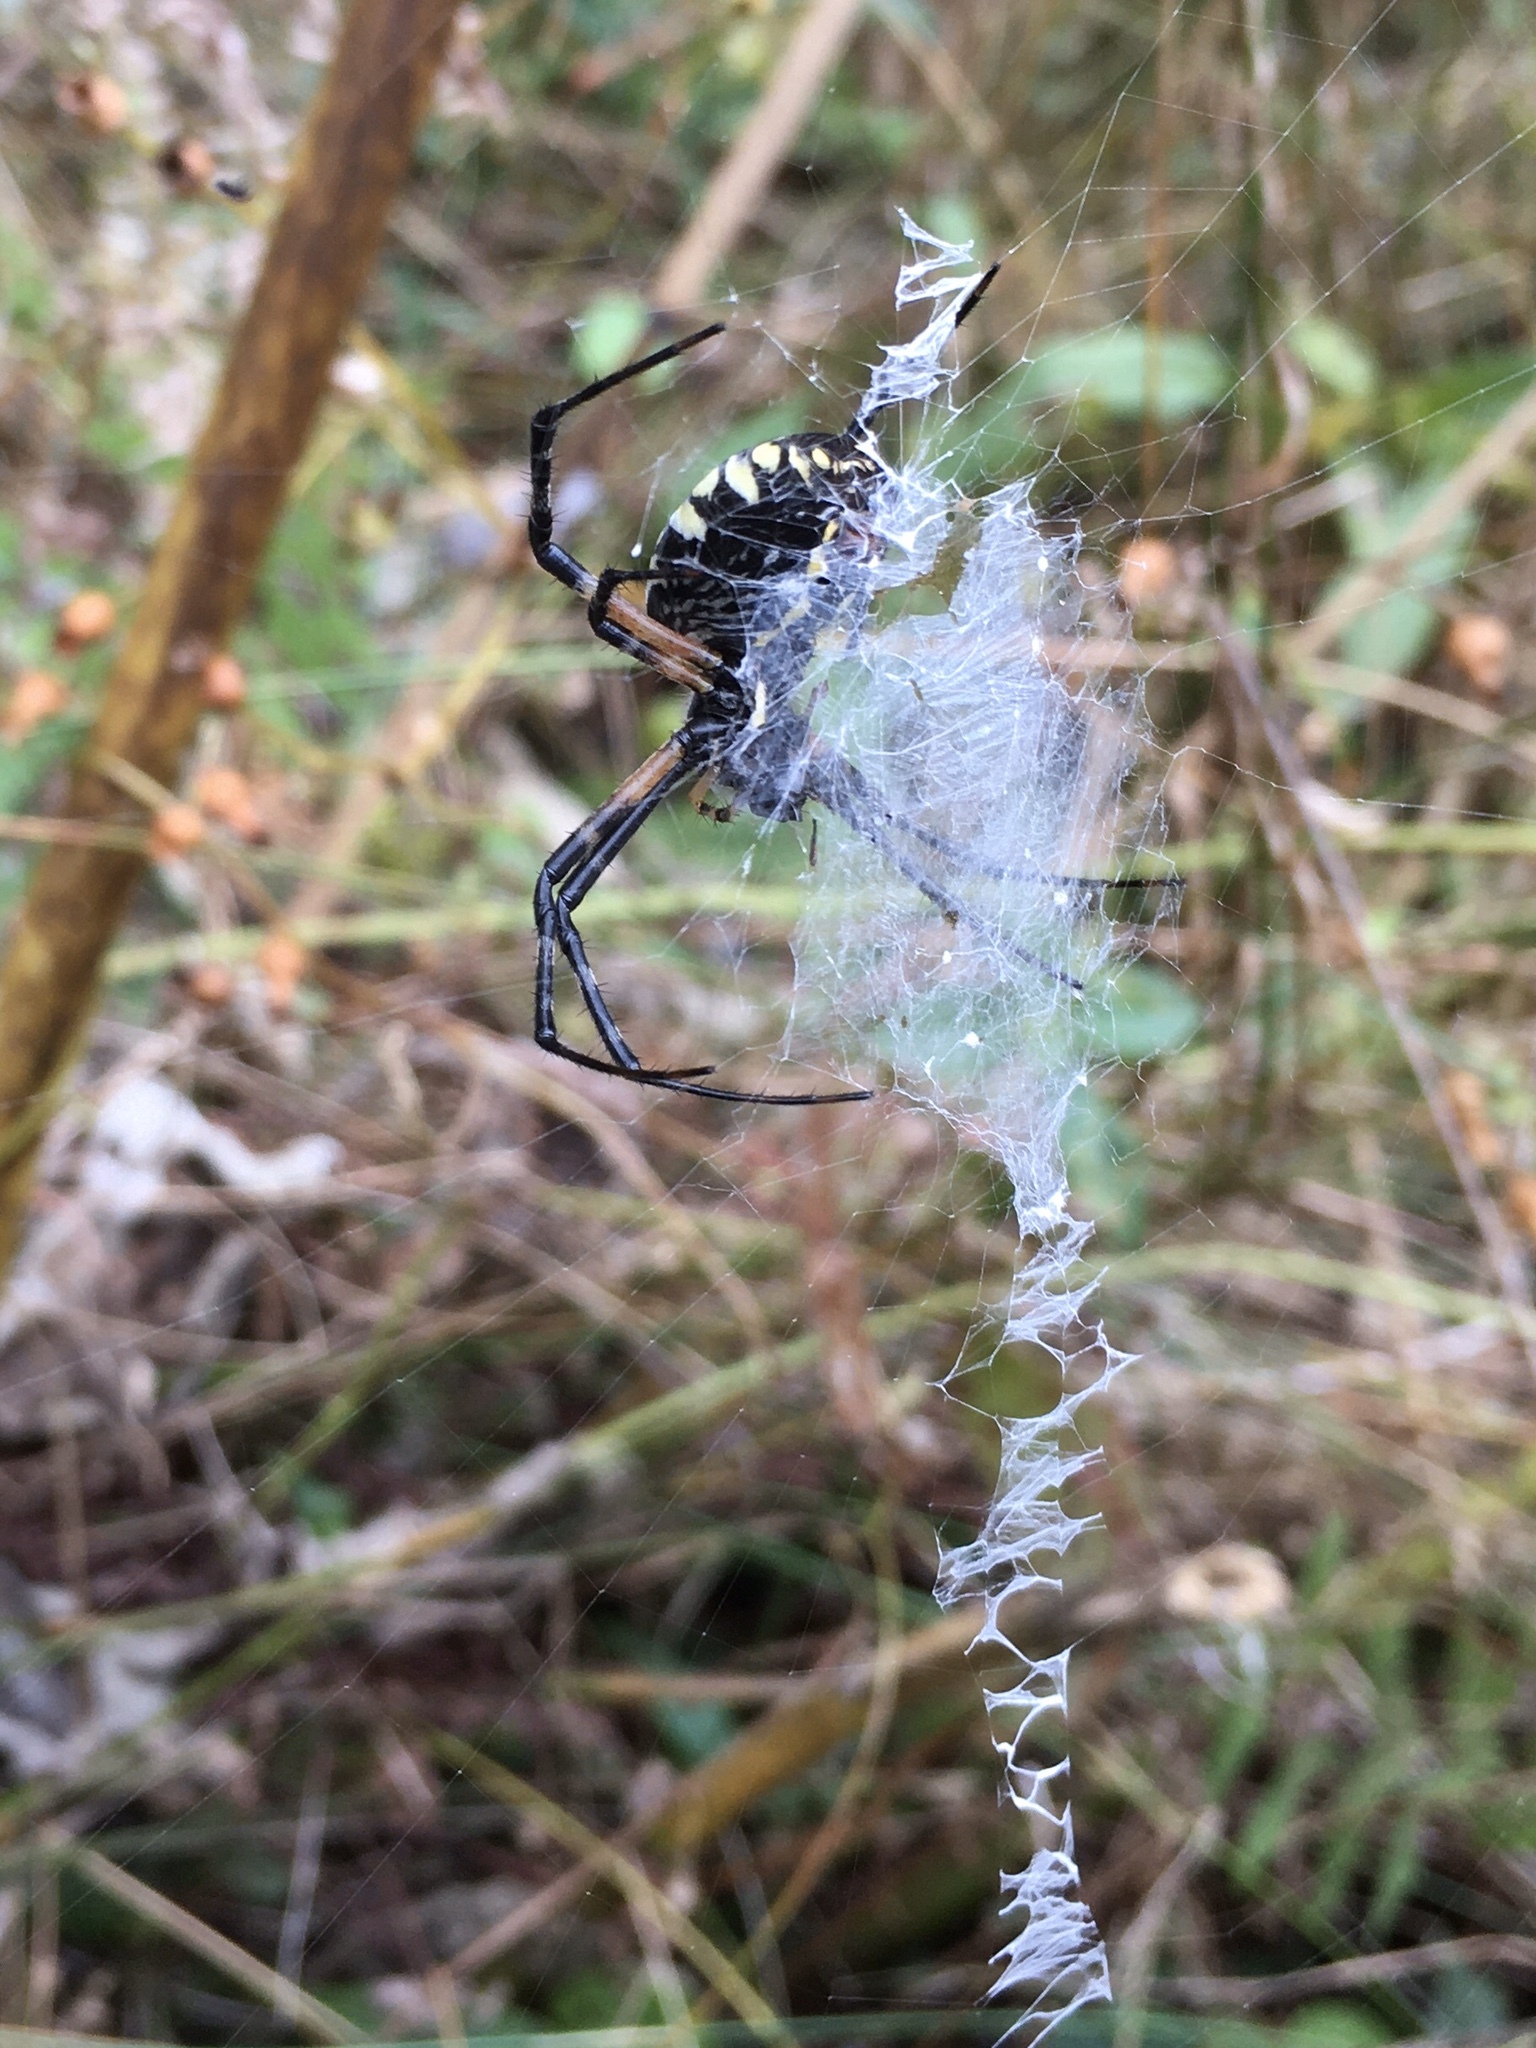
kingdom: Animalia
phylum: Arthropoda
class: Arachnida
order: Araneae
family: Araneidae
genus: Argiope
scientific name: Argiope aurantia
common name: Orb weavers
